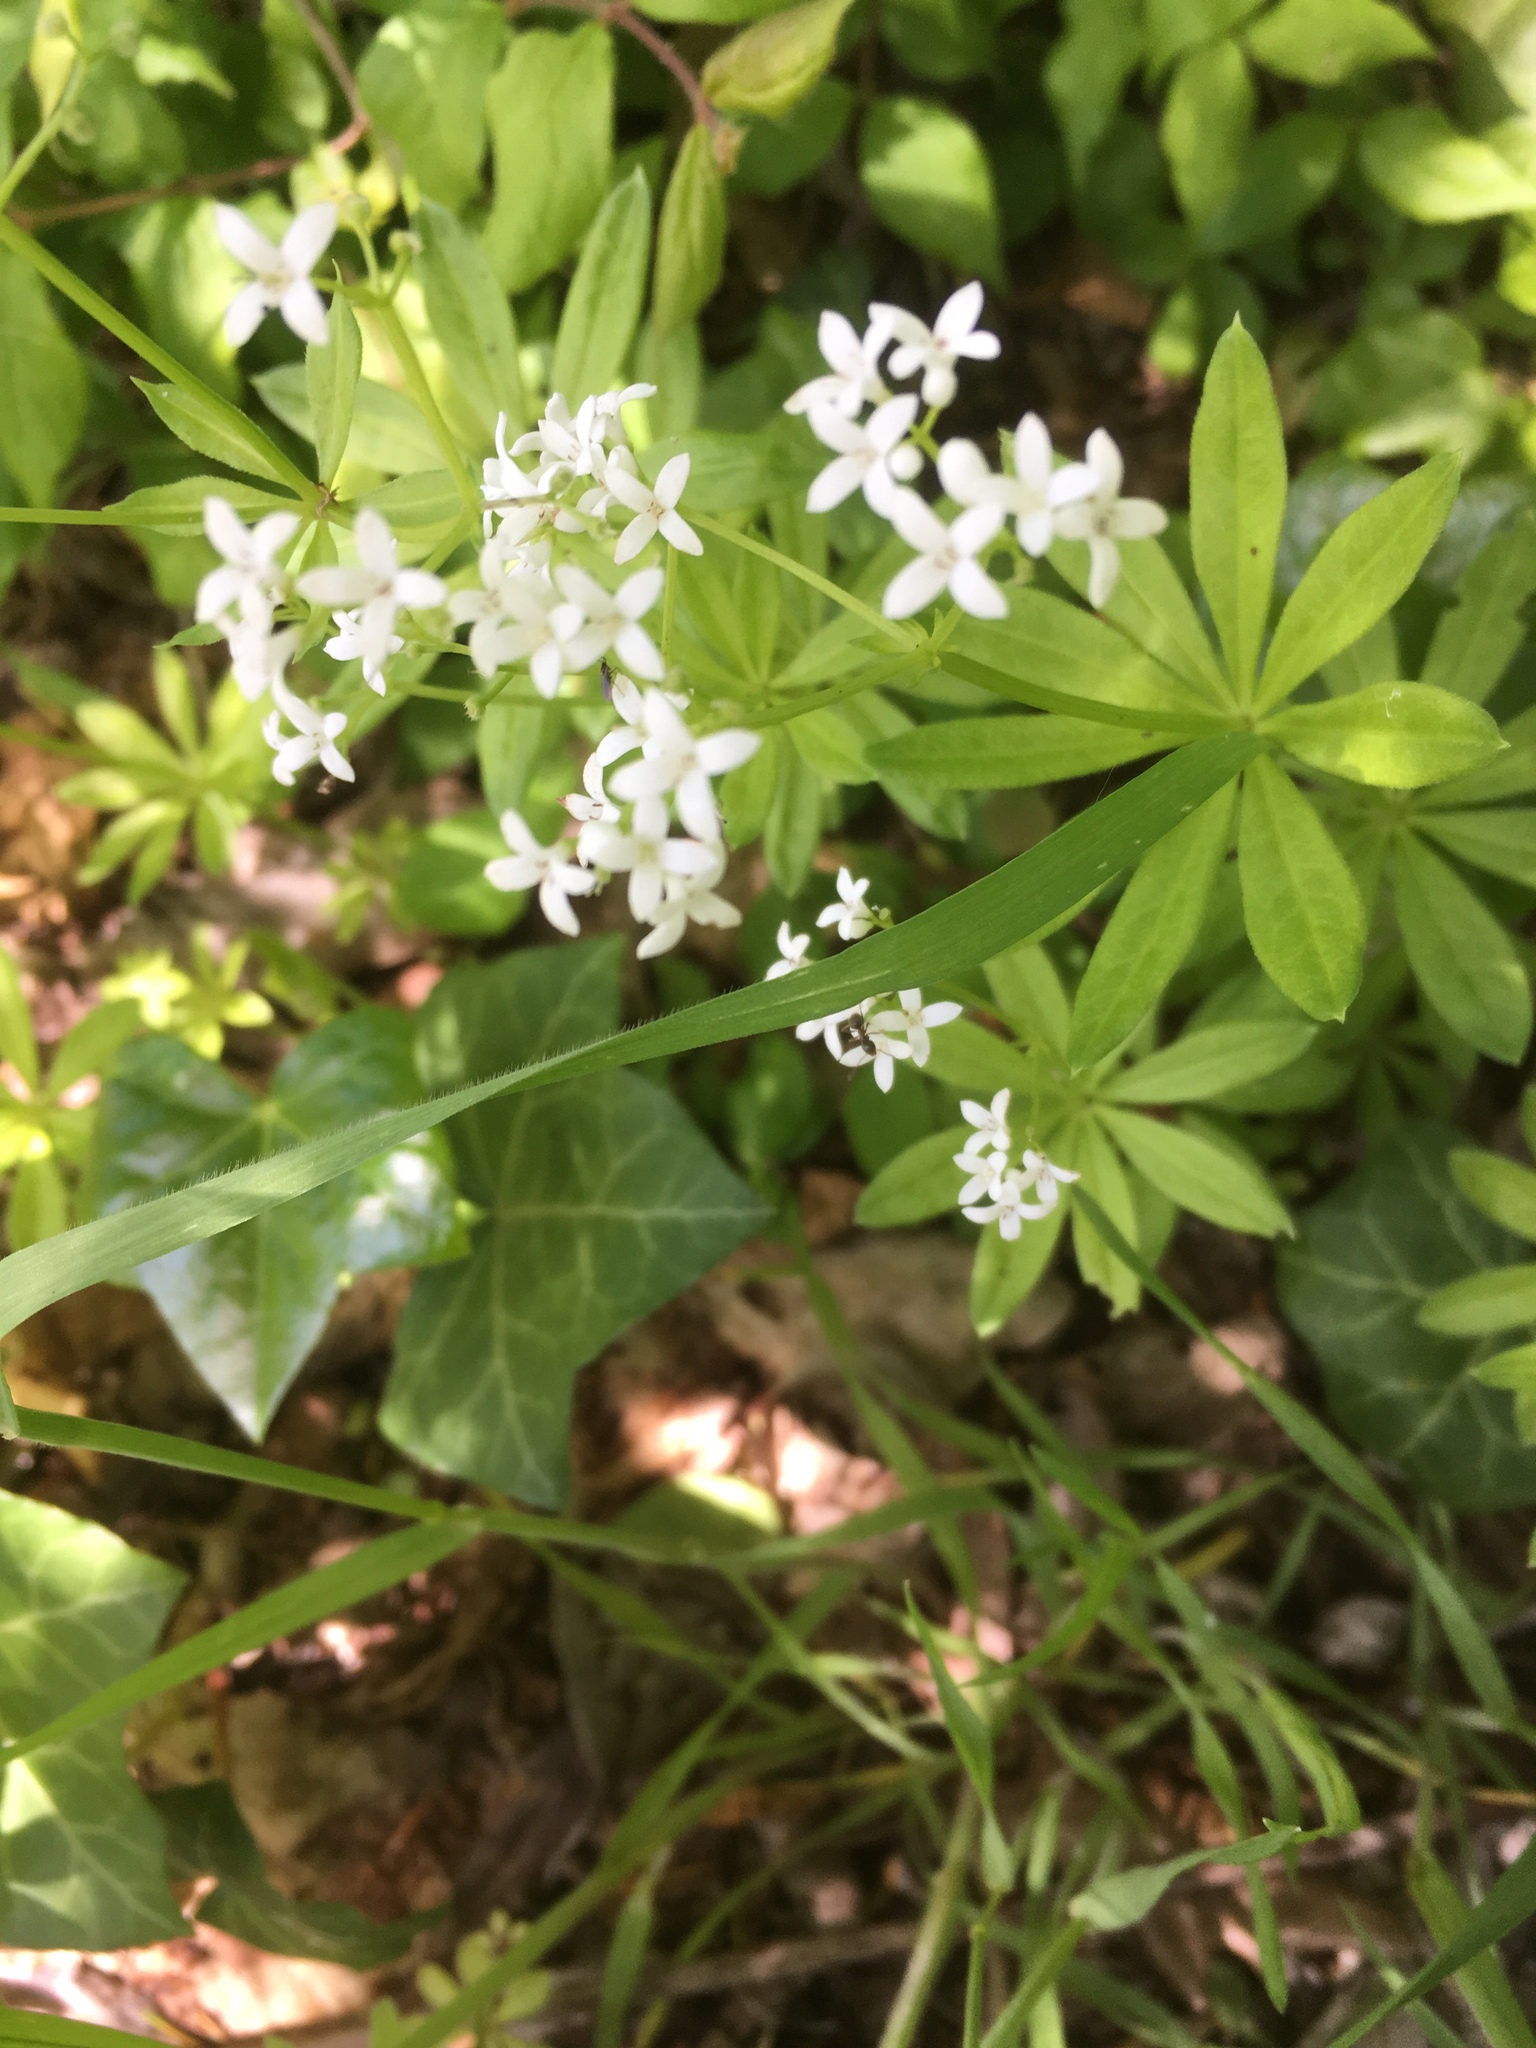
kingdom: Plantae
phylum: Tracheophyta
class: Magnoliopsida
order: Gentianales
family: Rubiaceae
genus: Galium
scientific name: Galium odoratum
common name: Sweet woodruff
